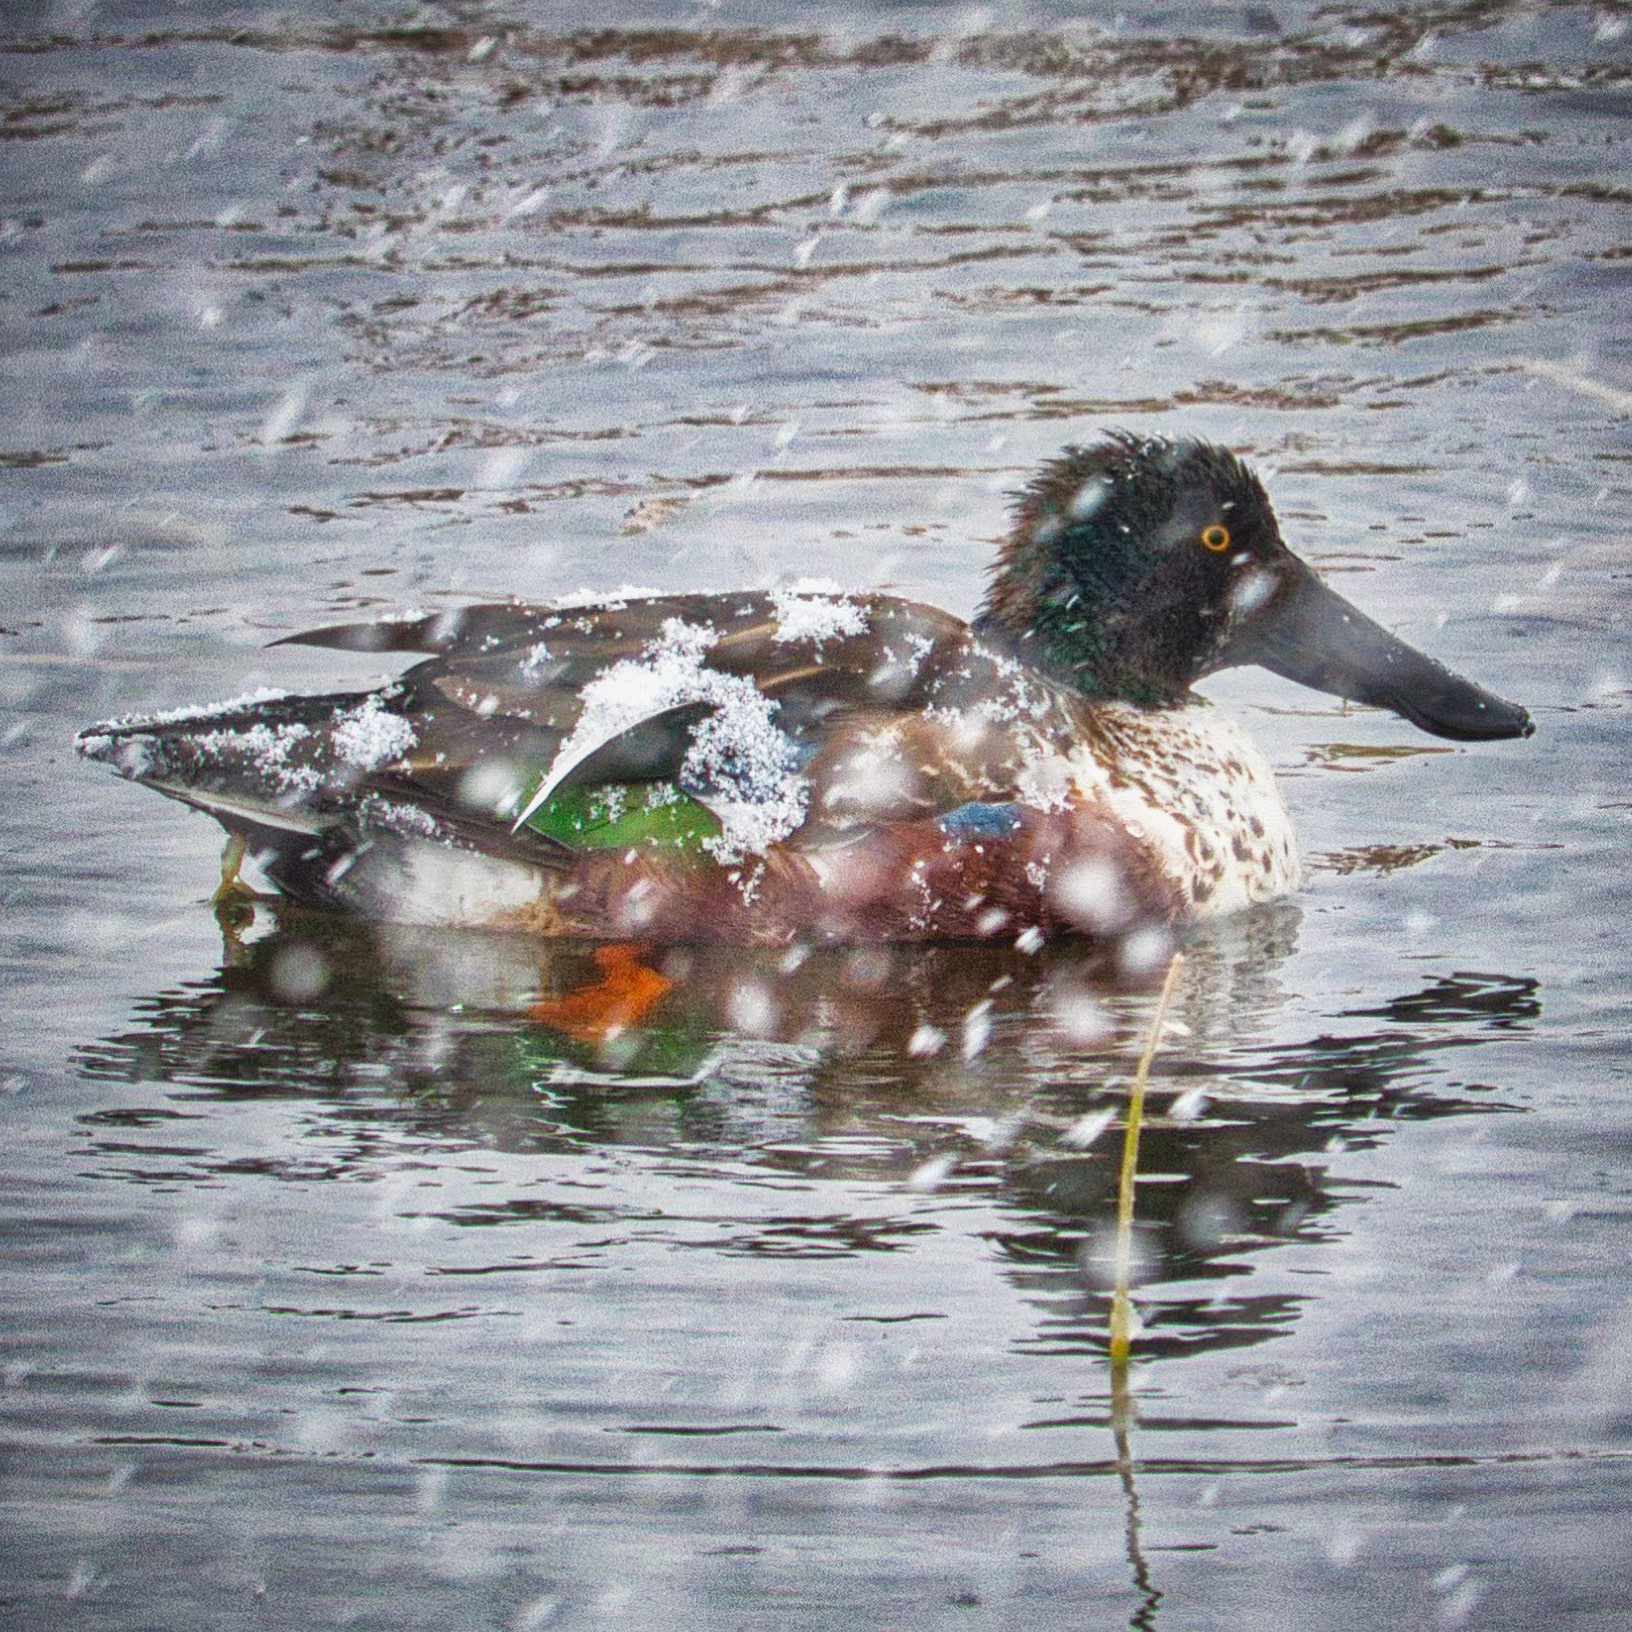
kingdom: Animalia
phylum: Chordata
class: Aves
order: Anseriformes
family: Anatidae
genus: Spatula
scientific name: Spatula clypeata
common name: Northern shoveler
